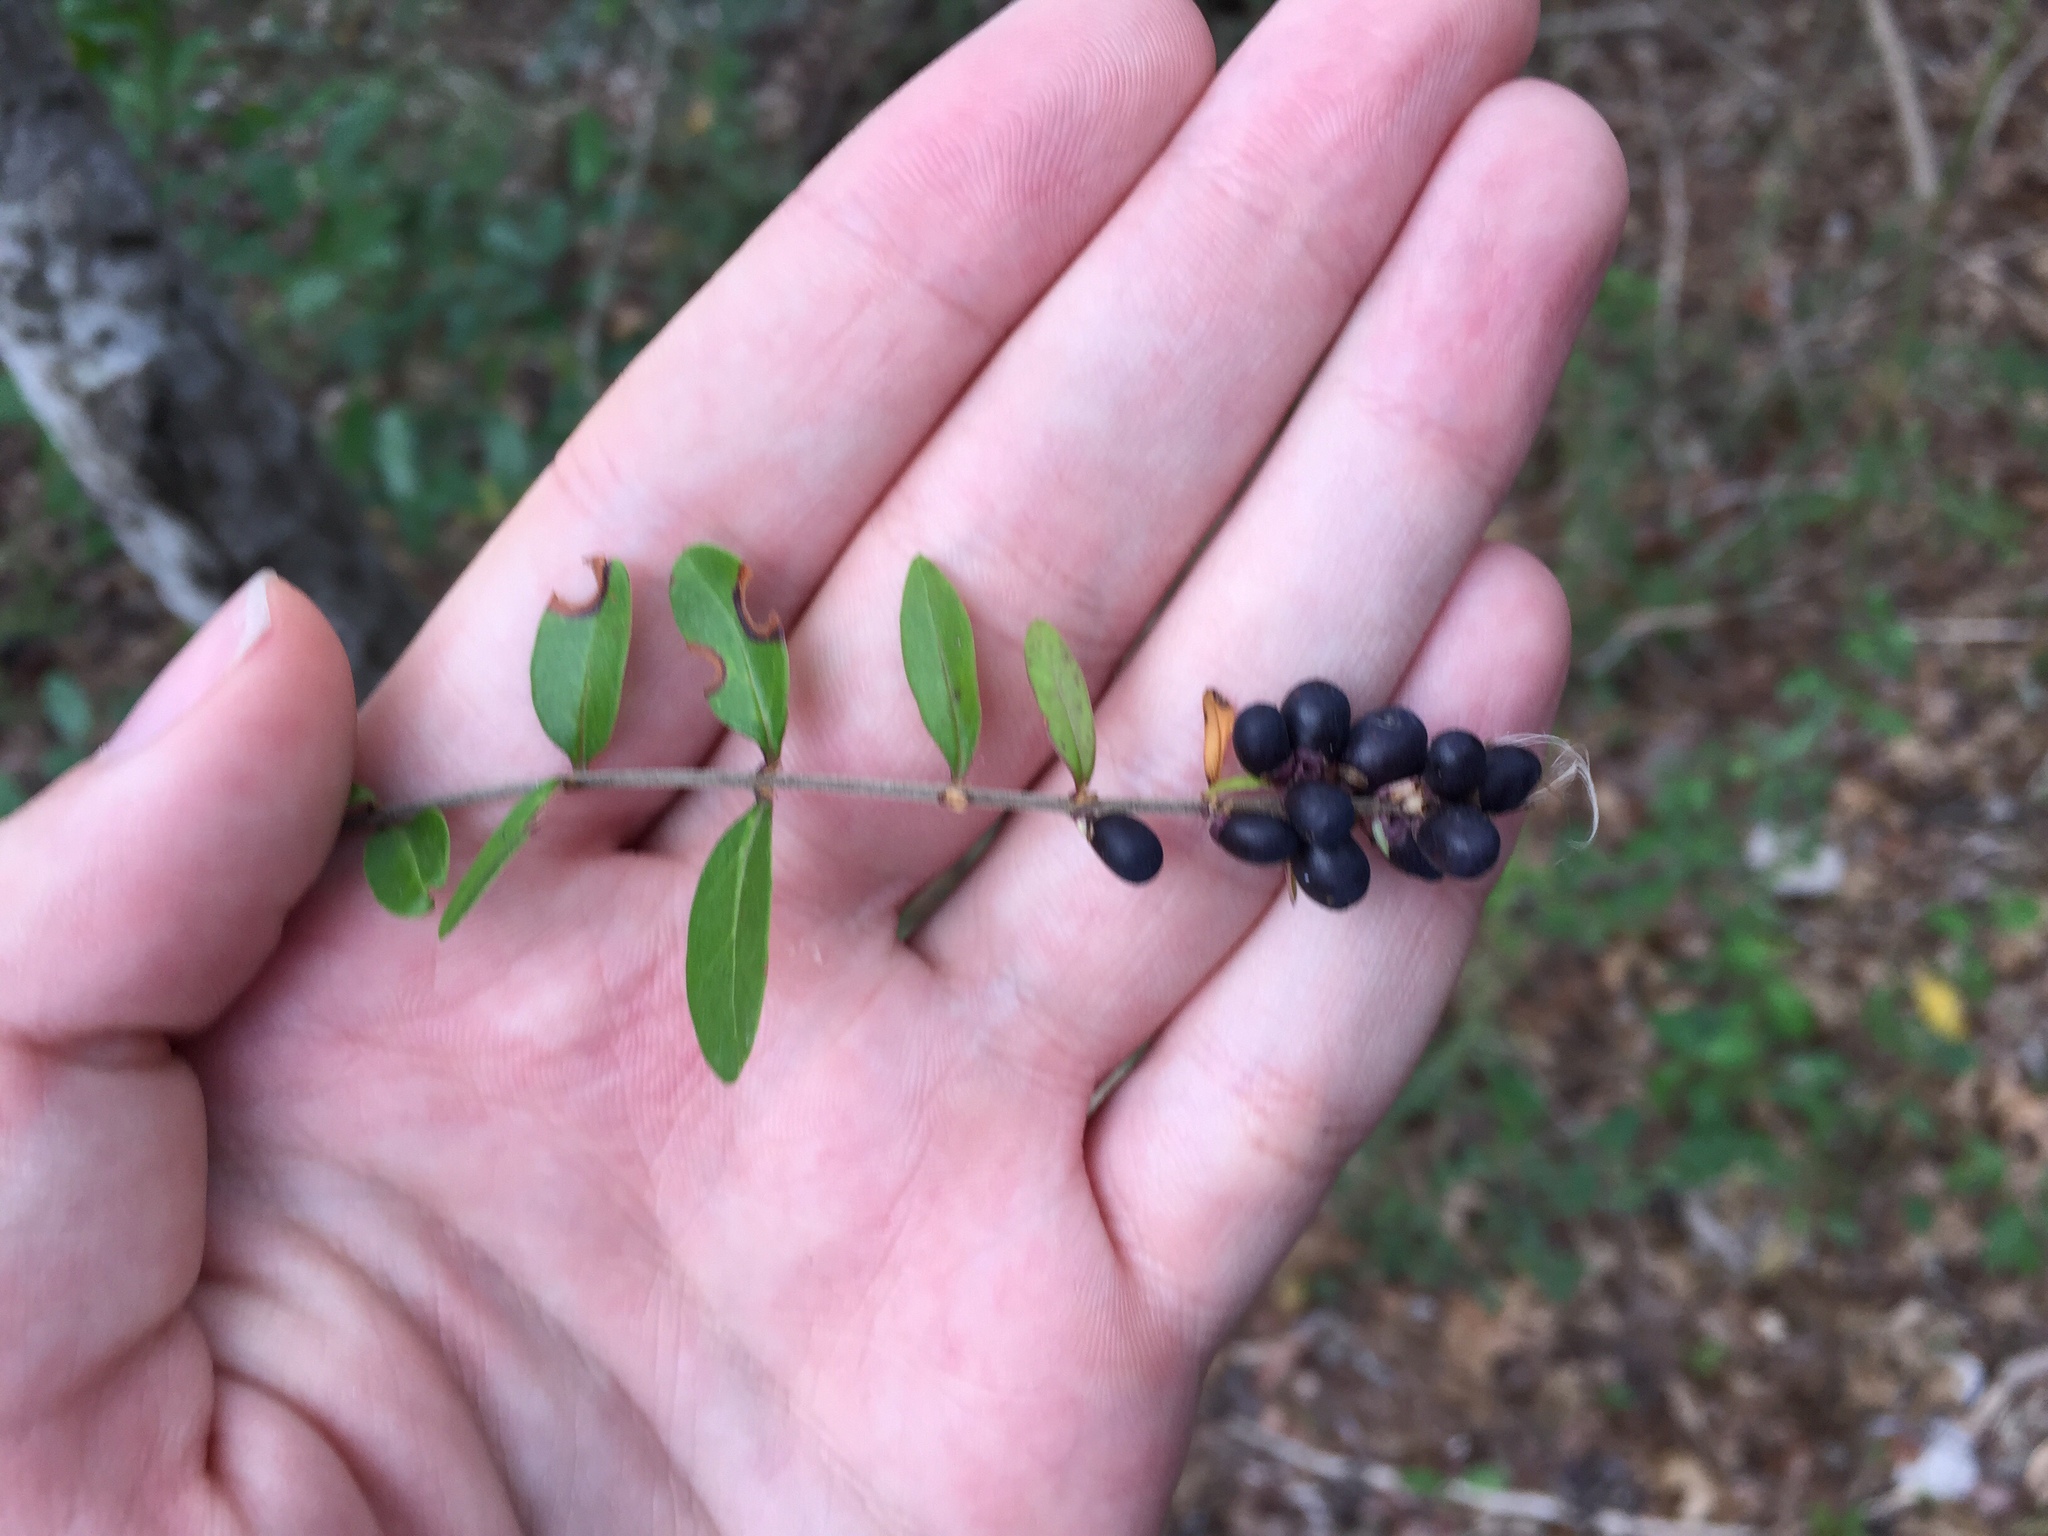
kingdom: Plantae
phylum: Tracheophyta
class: Magnoliopsida
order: Lamiales
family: Oleaceae
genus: Ligustrum
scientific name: Ligustrum quihoui
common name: Waxyleaf privet
